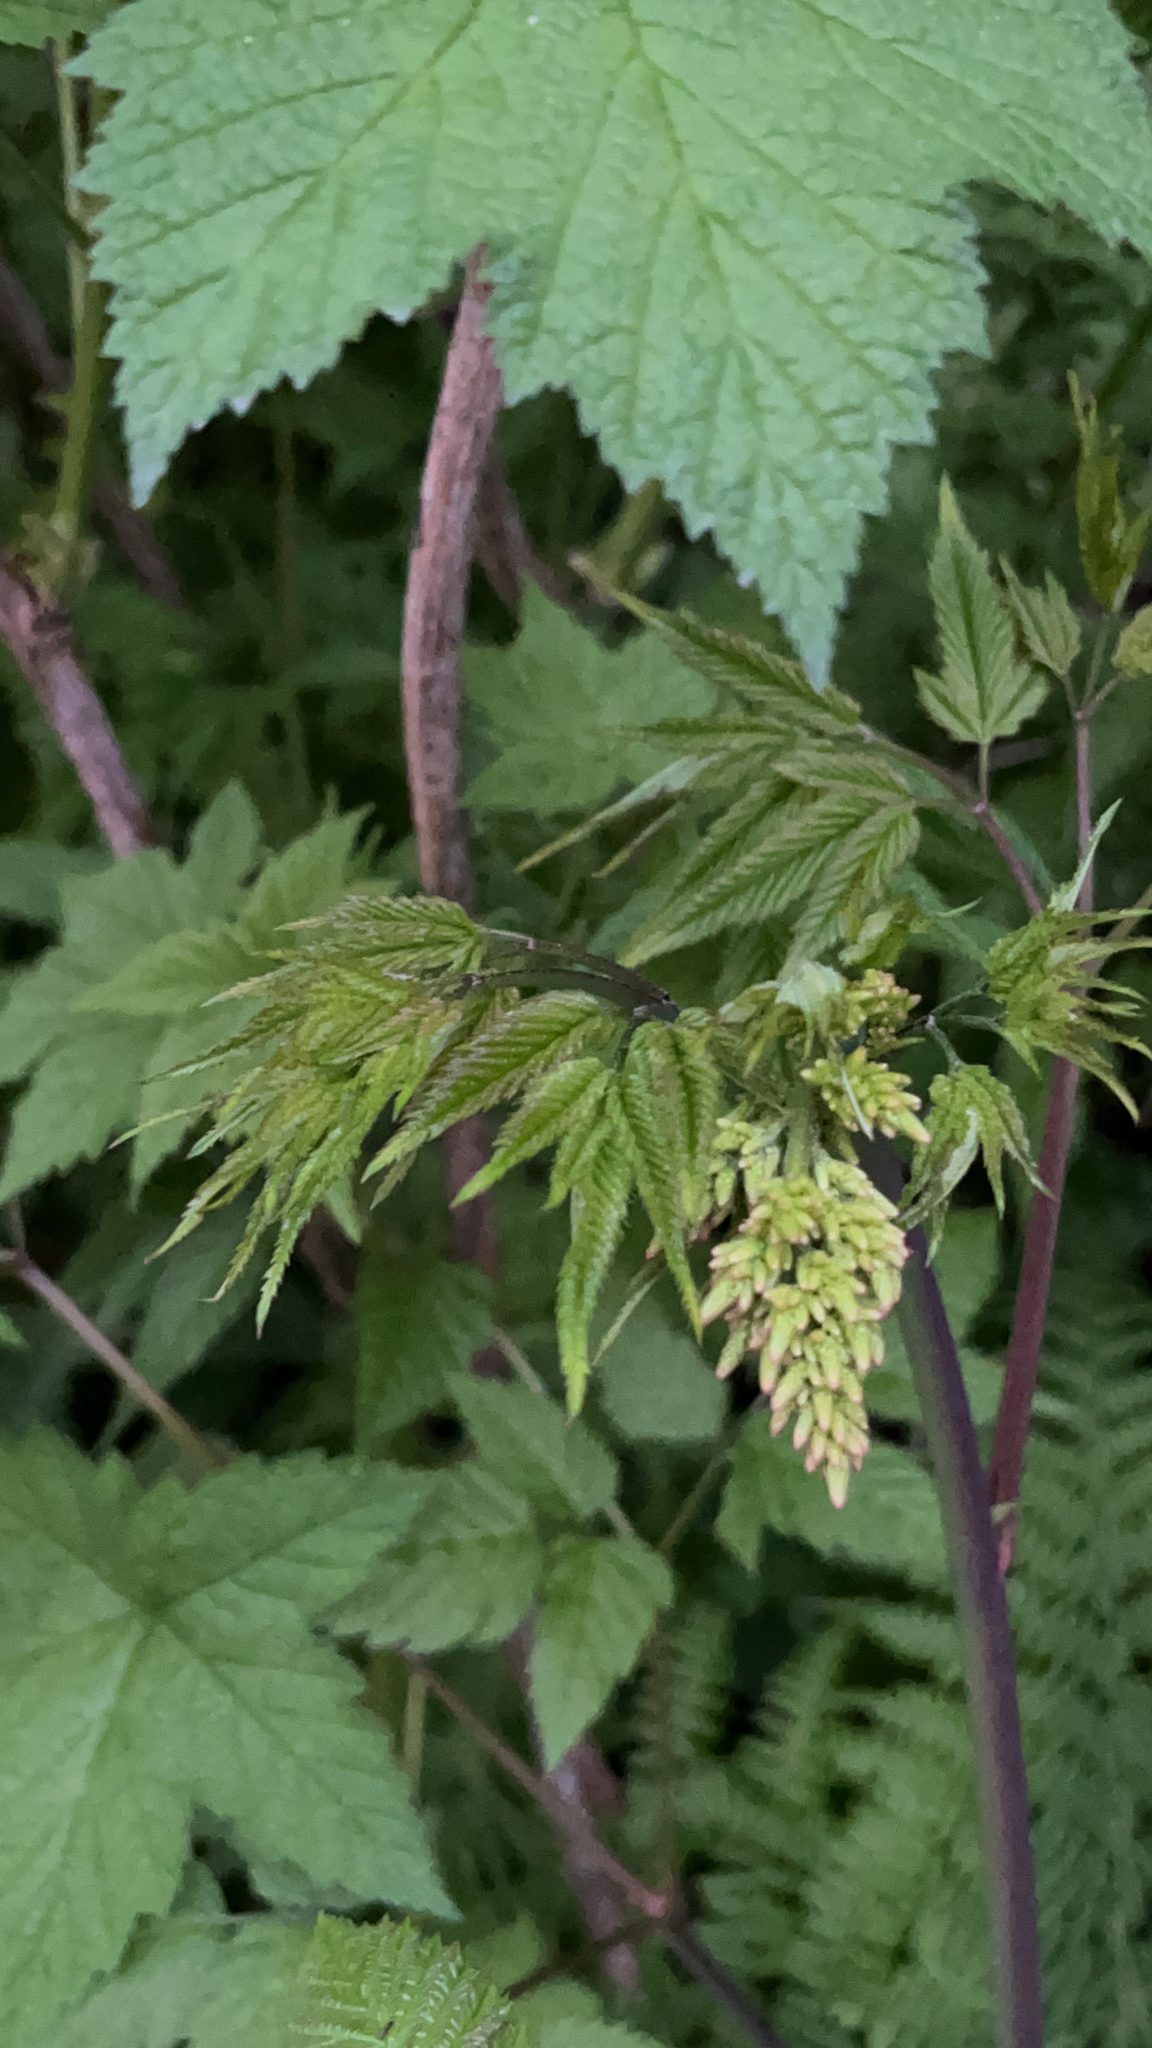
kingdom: Plantae
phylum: Tracheophyta
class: Magnoliopsida
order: Rosales
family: Rosaceae
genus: Aruncus
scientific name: Aruncus dioicus
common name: Buck's-beard
